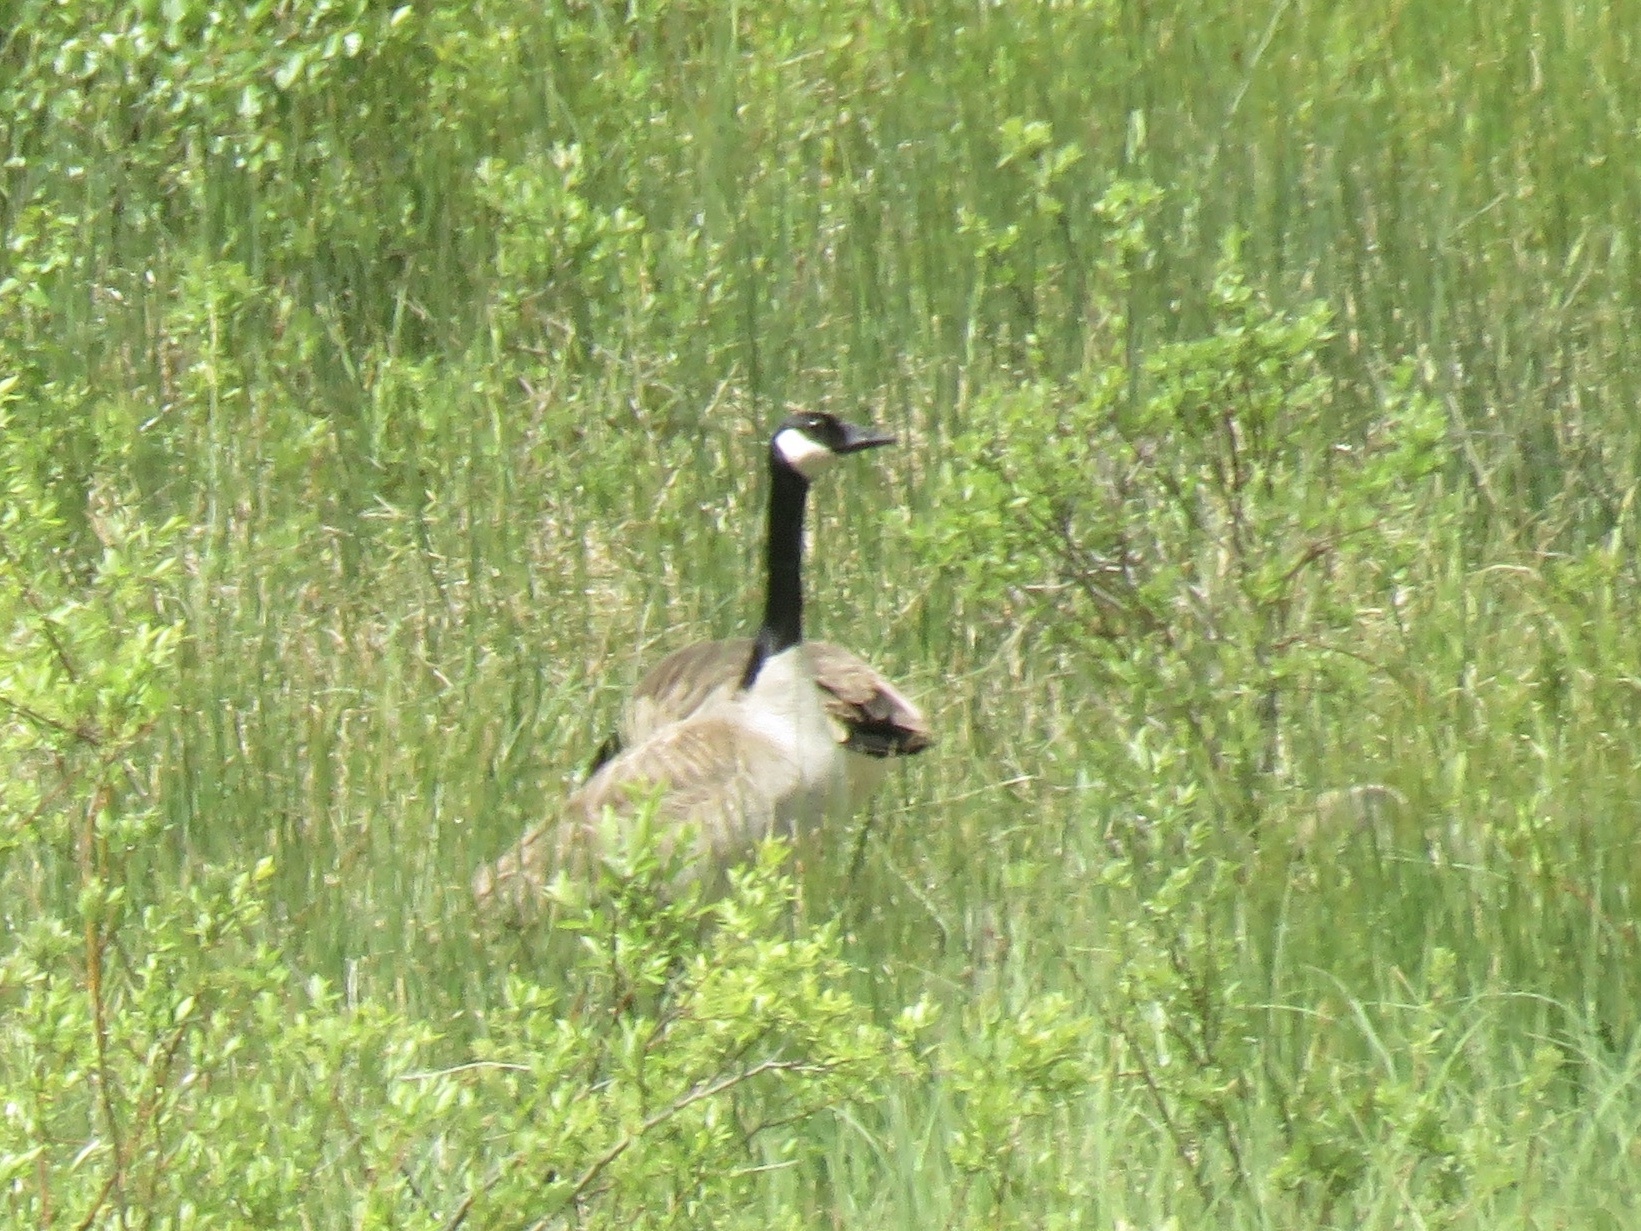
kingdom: Animalia
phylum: Chordata
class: Aves
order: Anseriformes
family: Anatidae
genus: Branta
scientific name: Branta canadensis
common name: Canada goose
